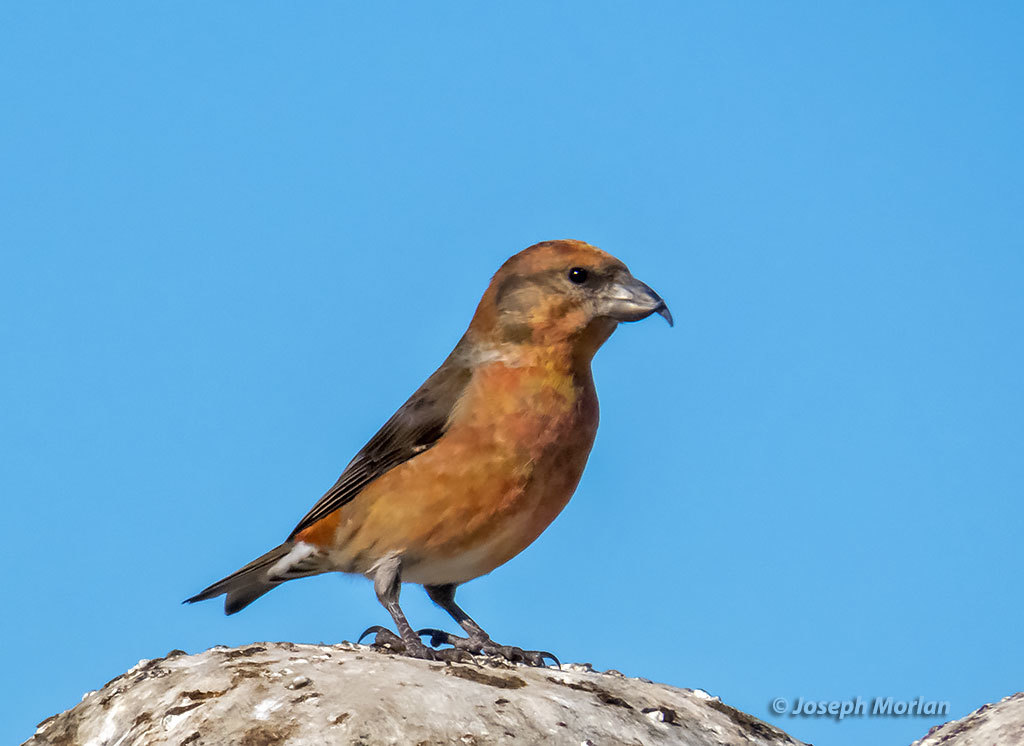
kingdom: Animalia
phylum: Chordata
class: Aves
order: Passeriformes
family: Fringillidae
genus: Loxia
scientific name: Loxia curvirostra
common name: Red crossbill
